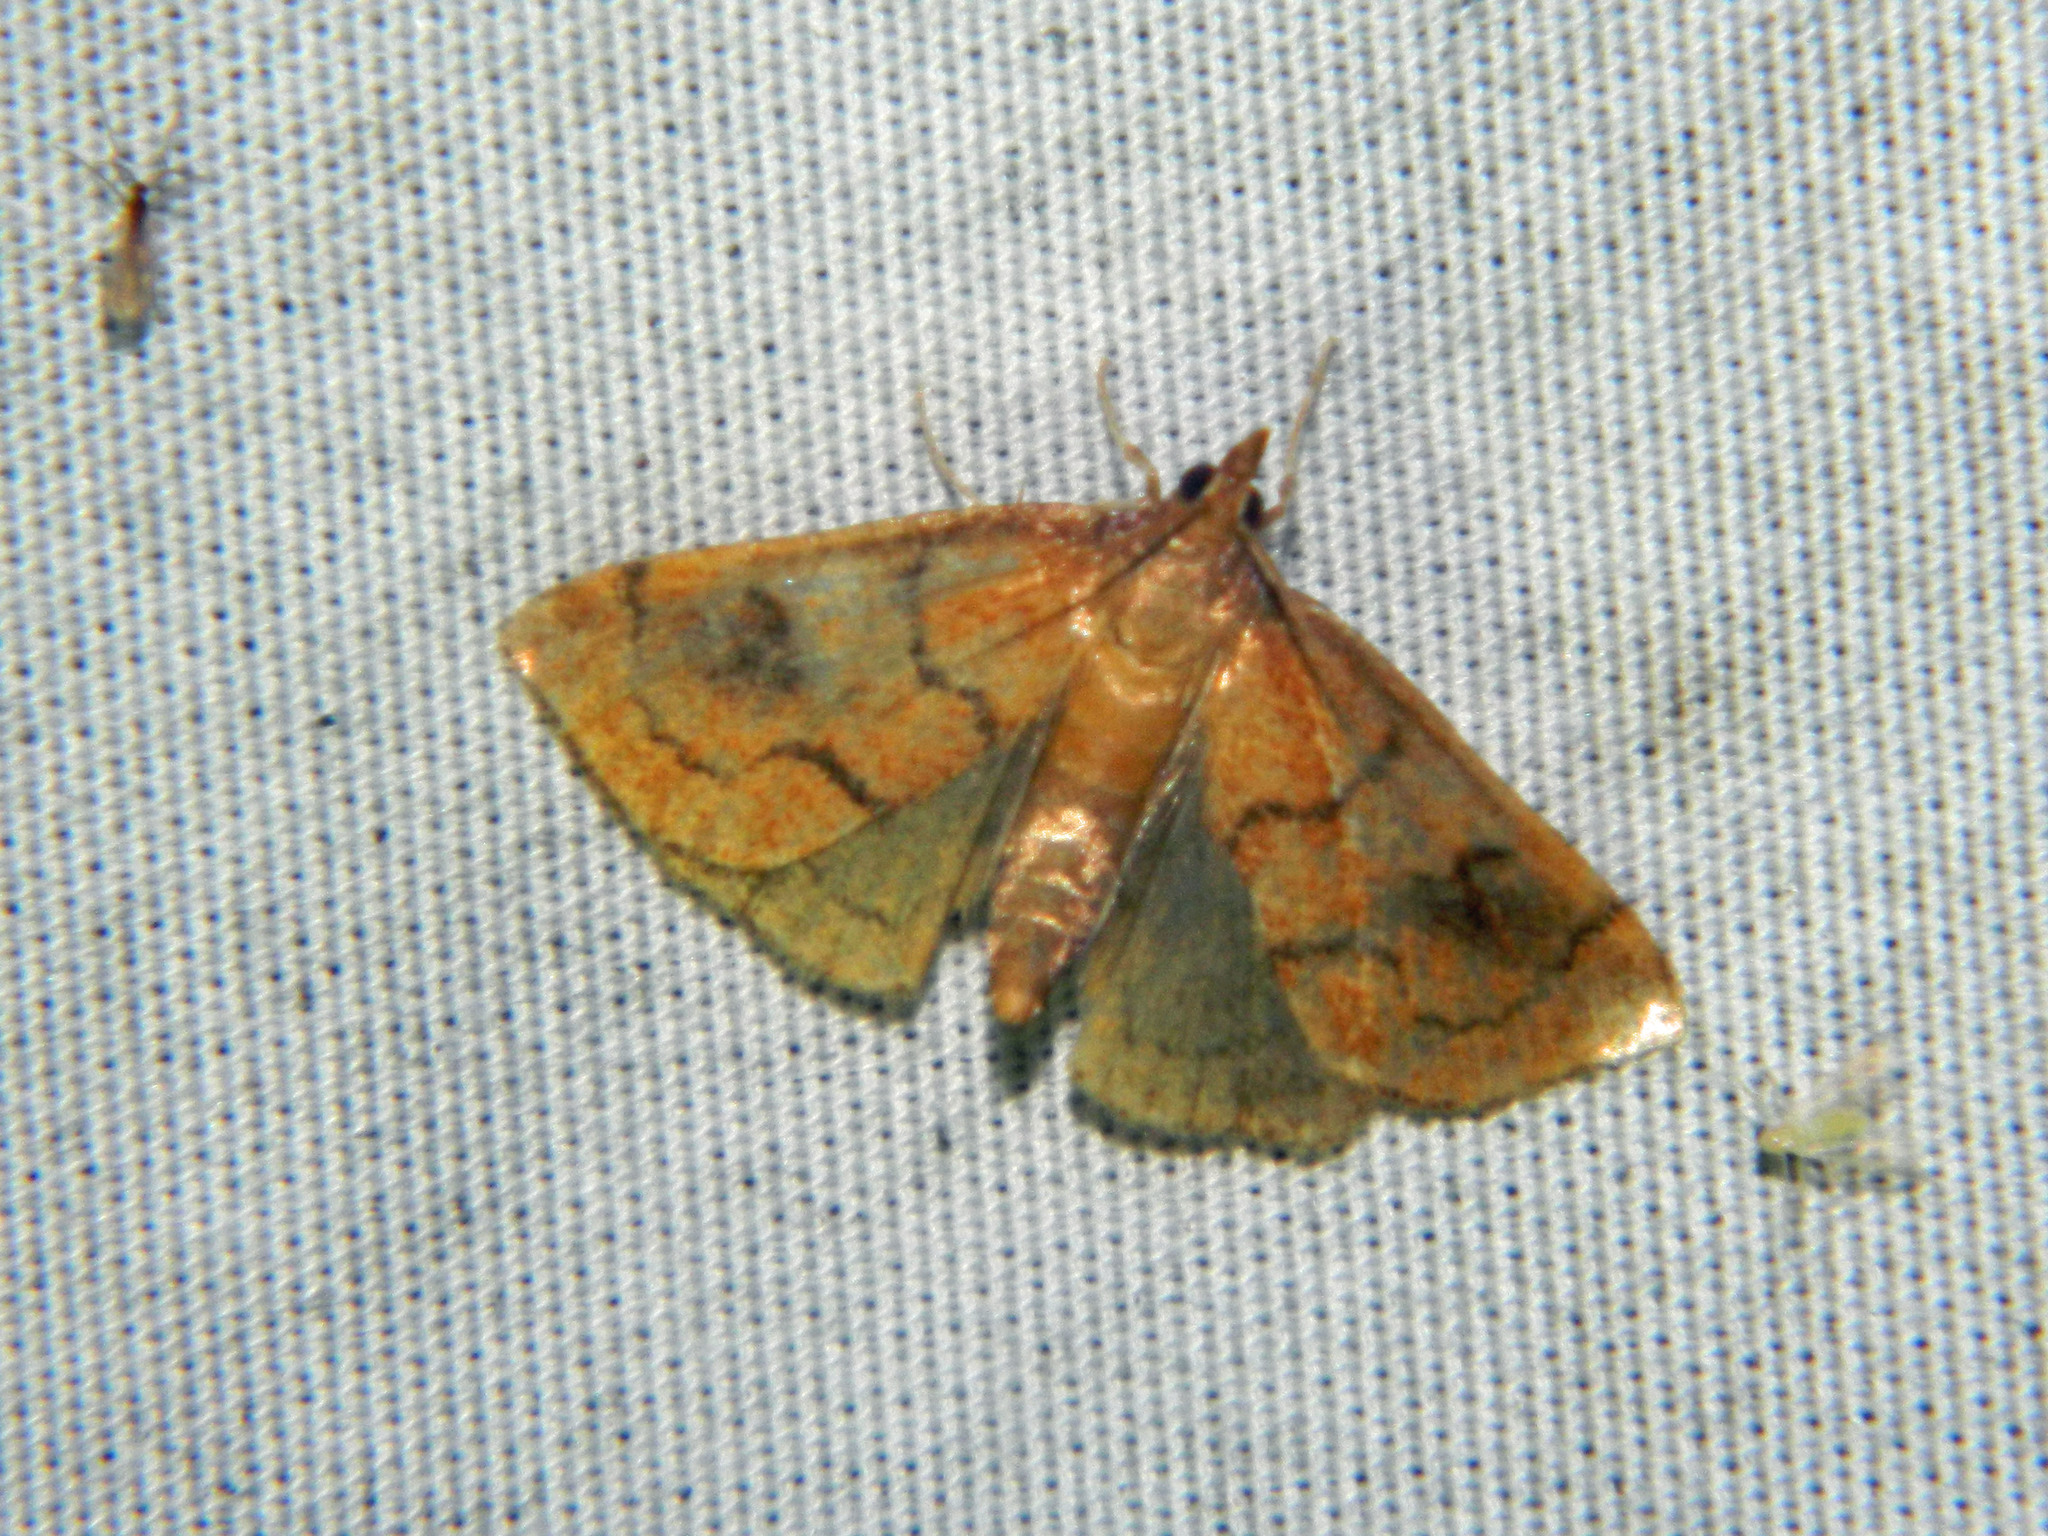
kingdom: Animalia
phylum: Arthropoda
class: Insecta
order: Lepidoptera
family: Crambidae
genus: Fumibotys
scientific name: Fumibotys fumalis
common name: Mint root borer moth
